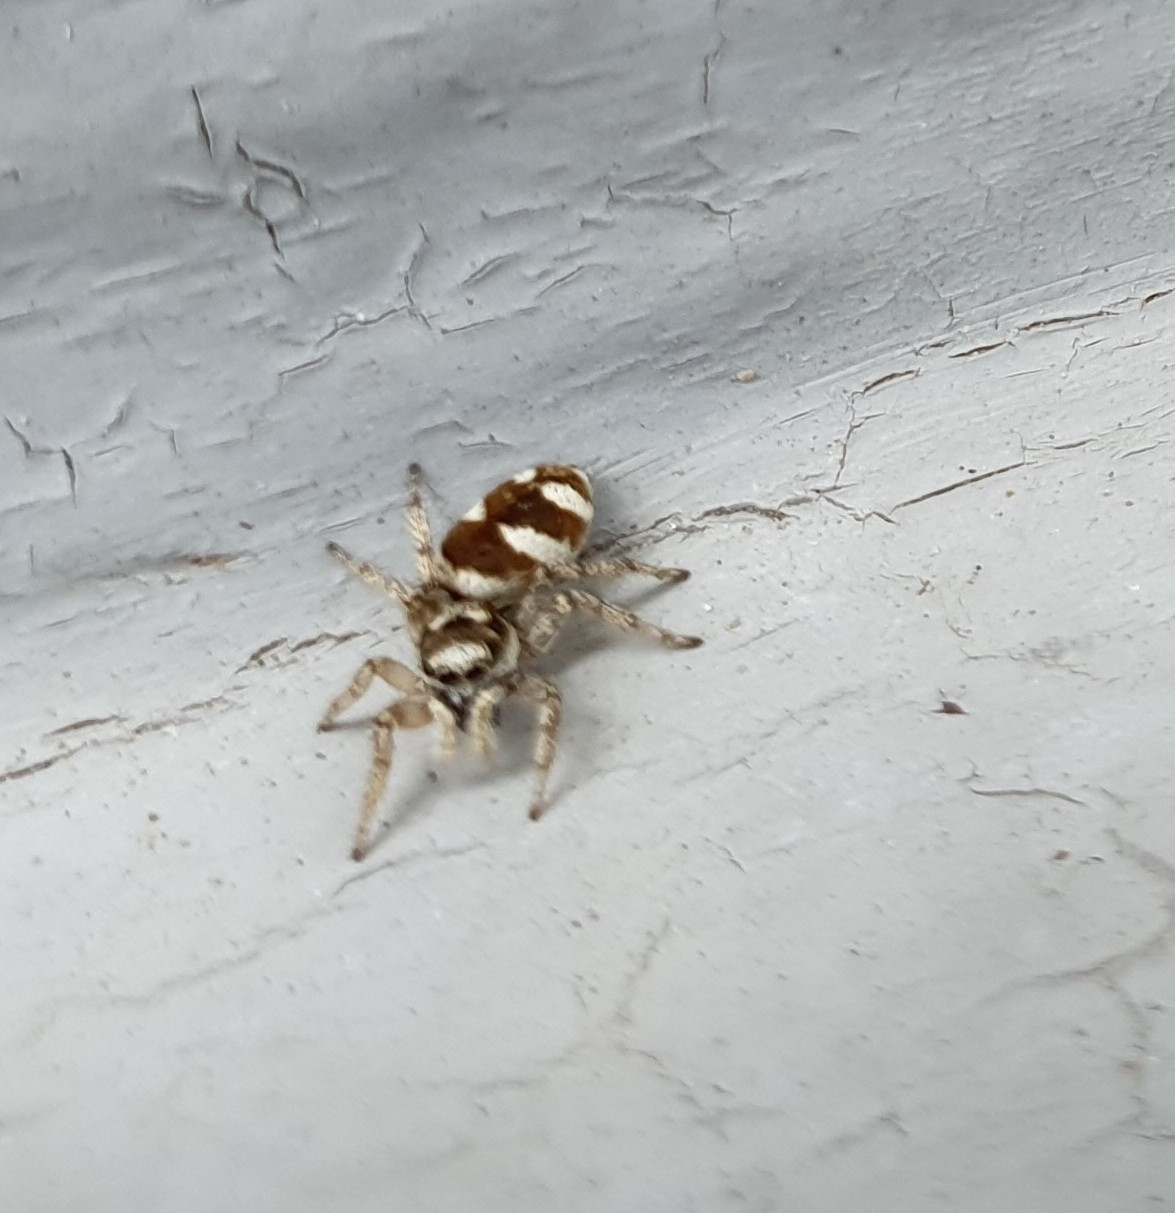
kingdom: Animalia
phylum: Arthropoda
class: Arachnida
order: Araneae
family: Salticidae
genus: Salticus
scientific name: Salticus scenicus
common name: Zebra jumper
